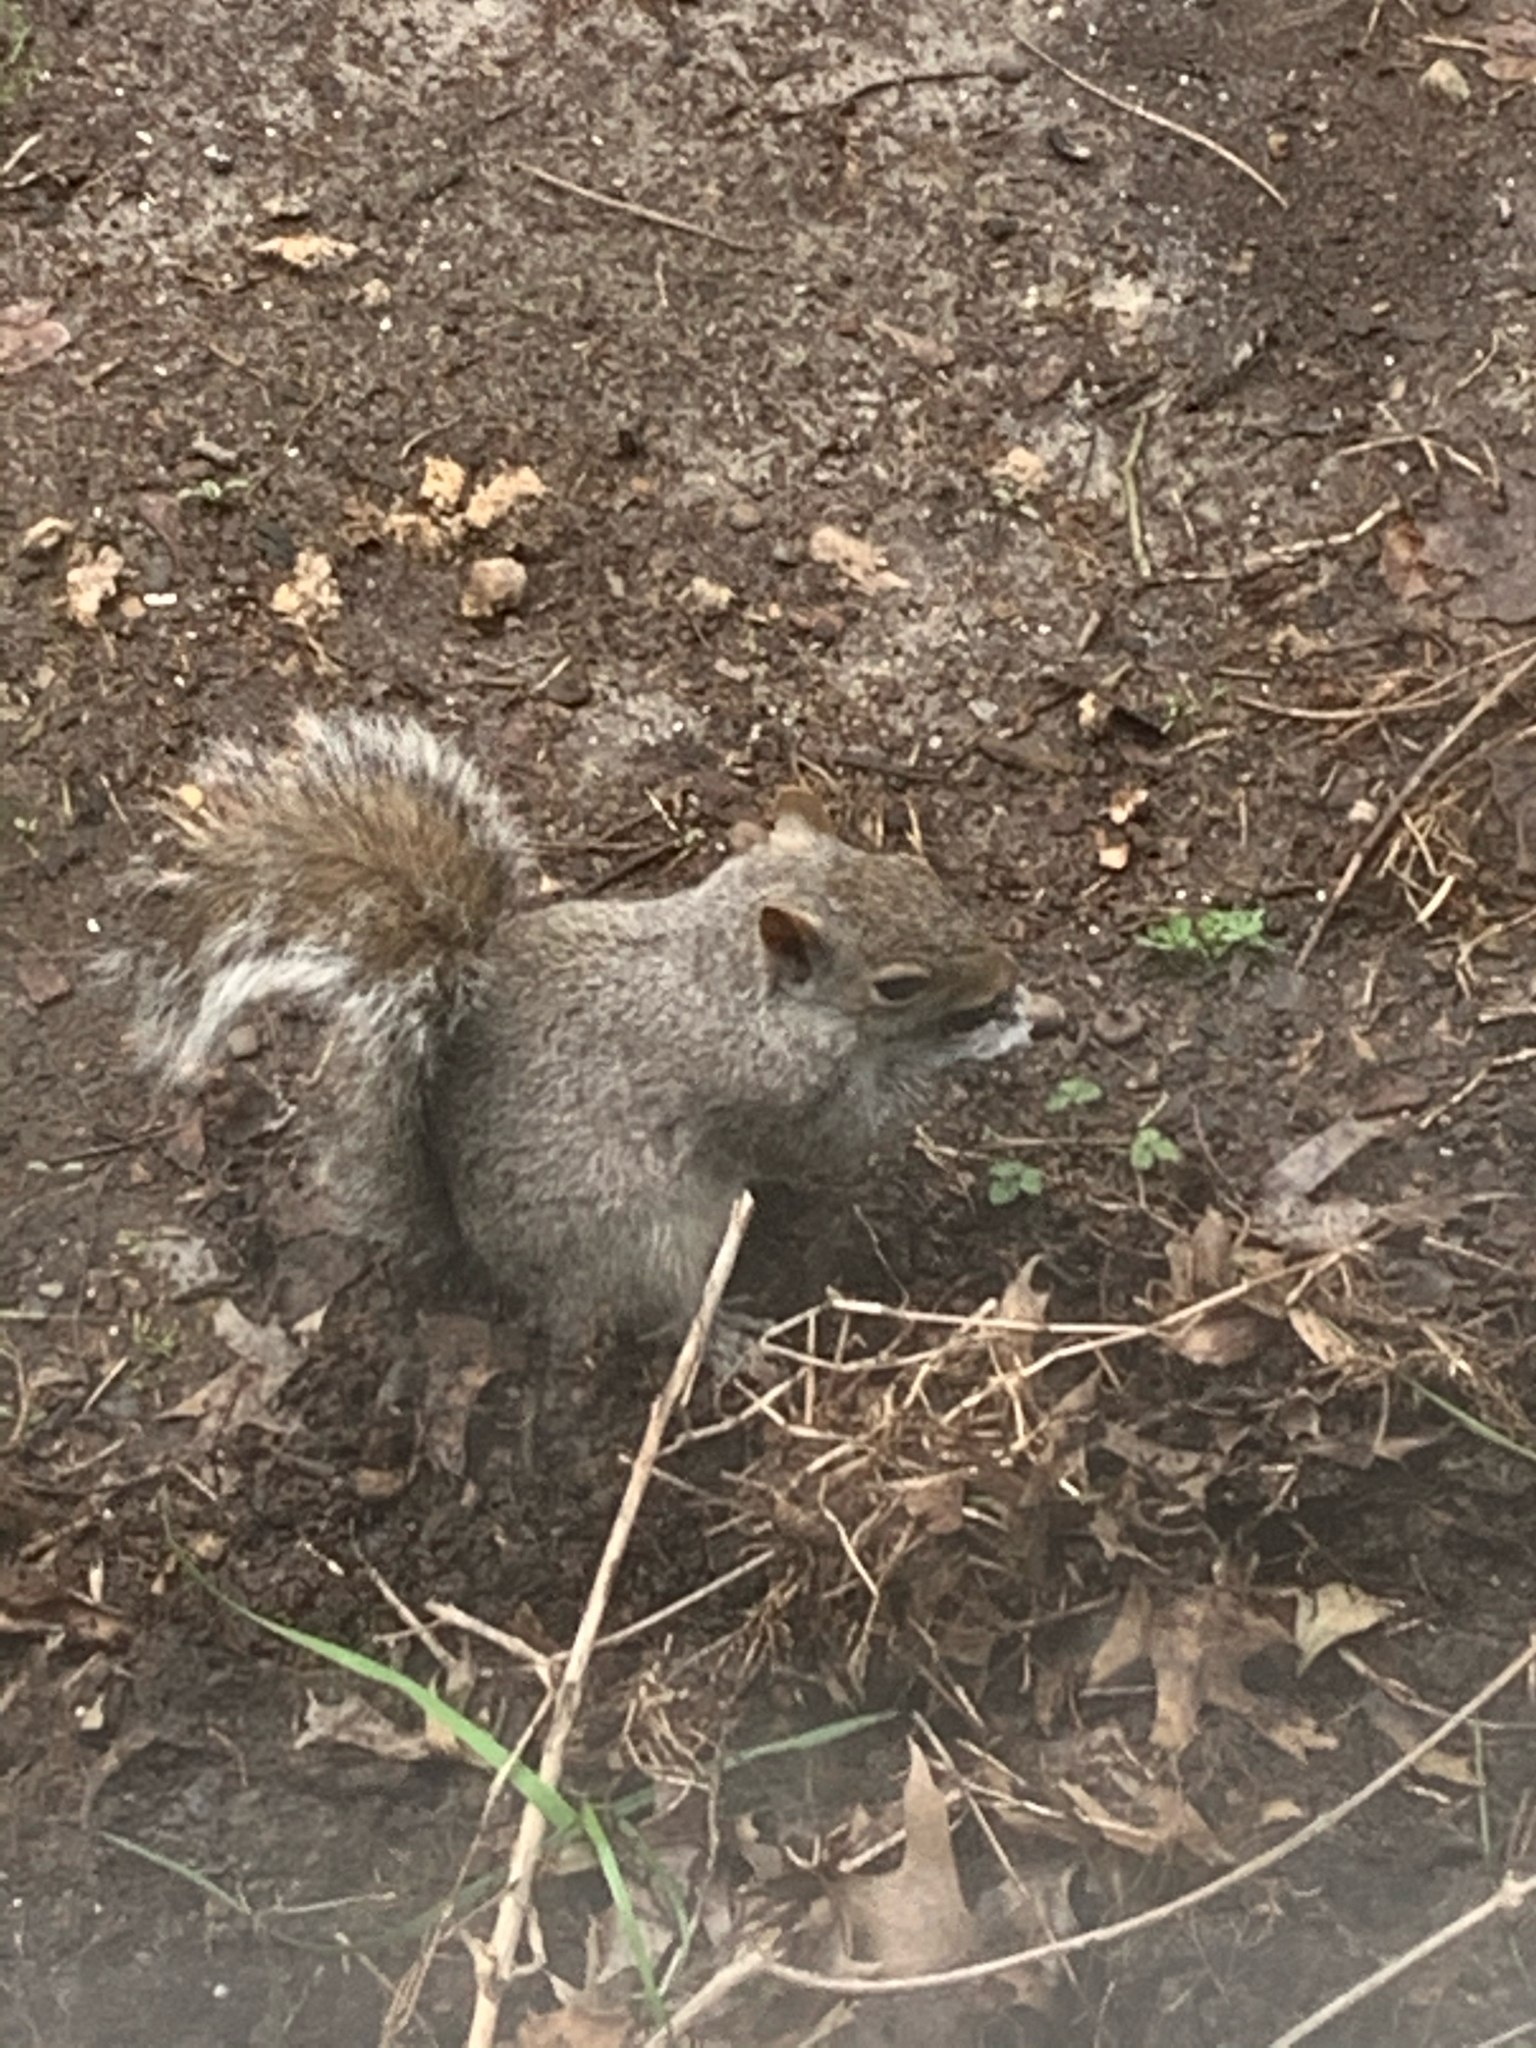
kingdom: Animalia
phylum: Chordata
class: Mammalia
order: Rodentia
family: Sciuridae
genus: Sciurus
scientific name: Sciurus carolinensis
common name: Eastern gray squirrel
